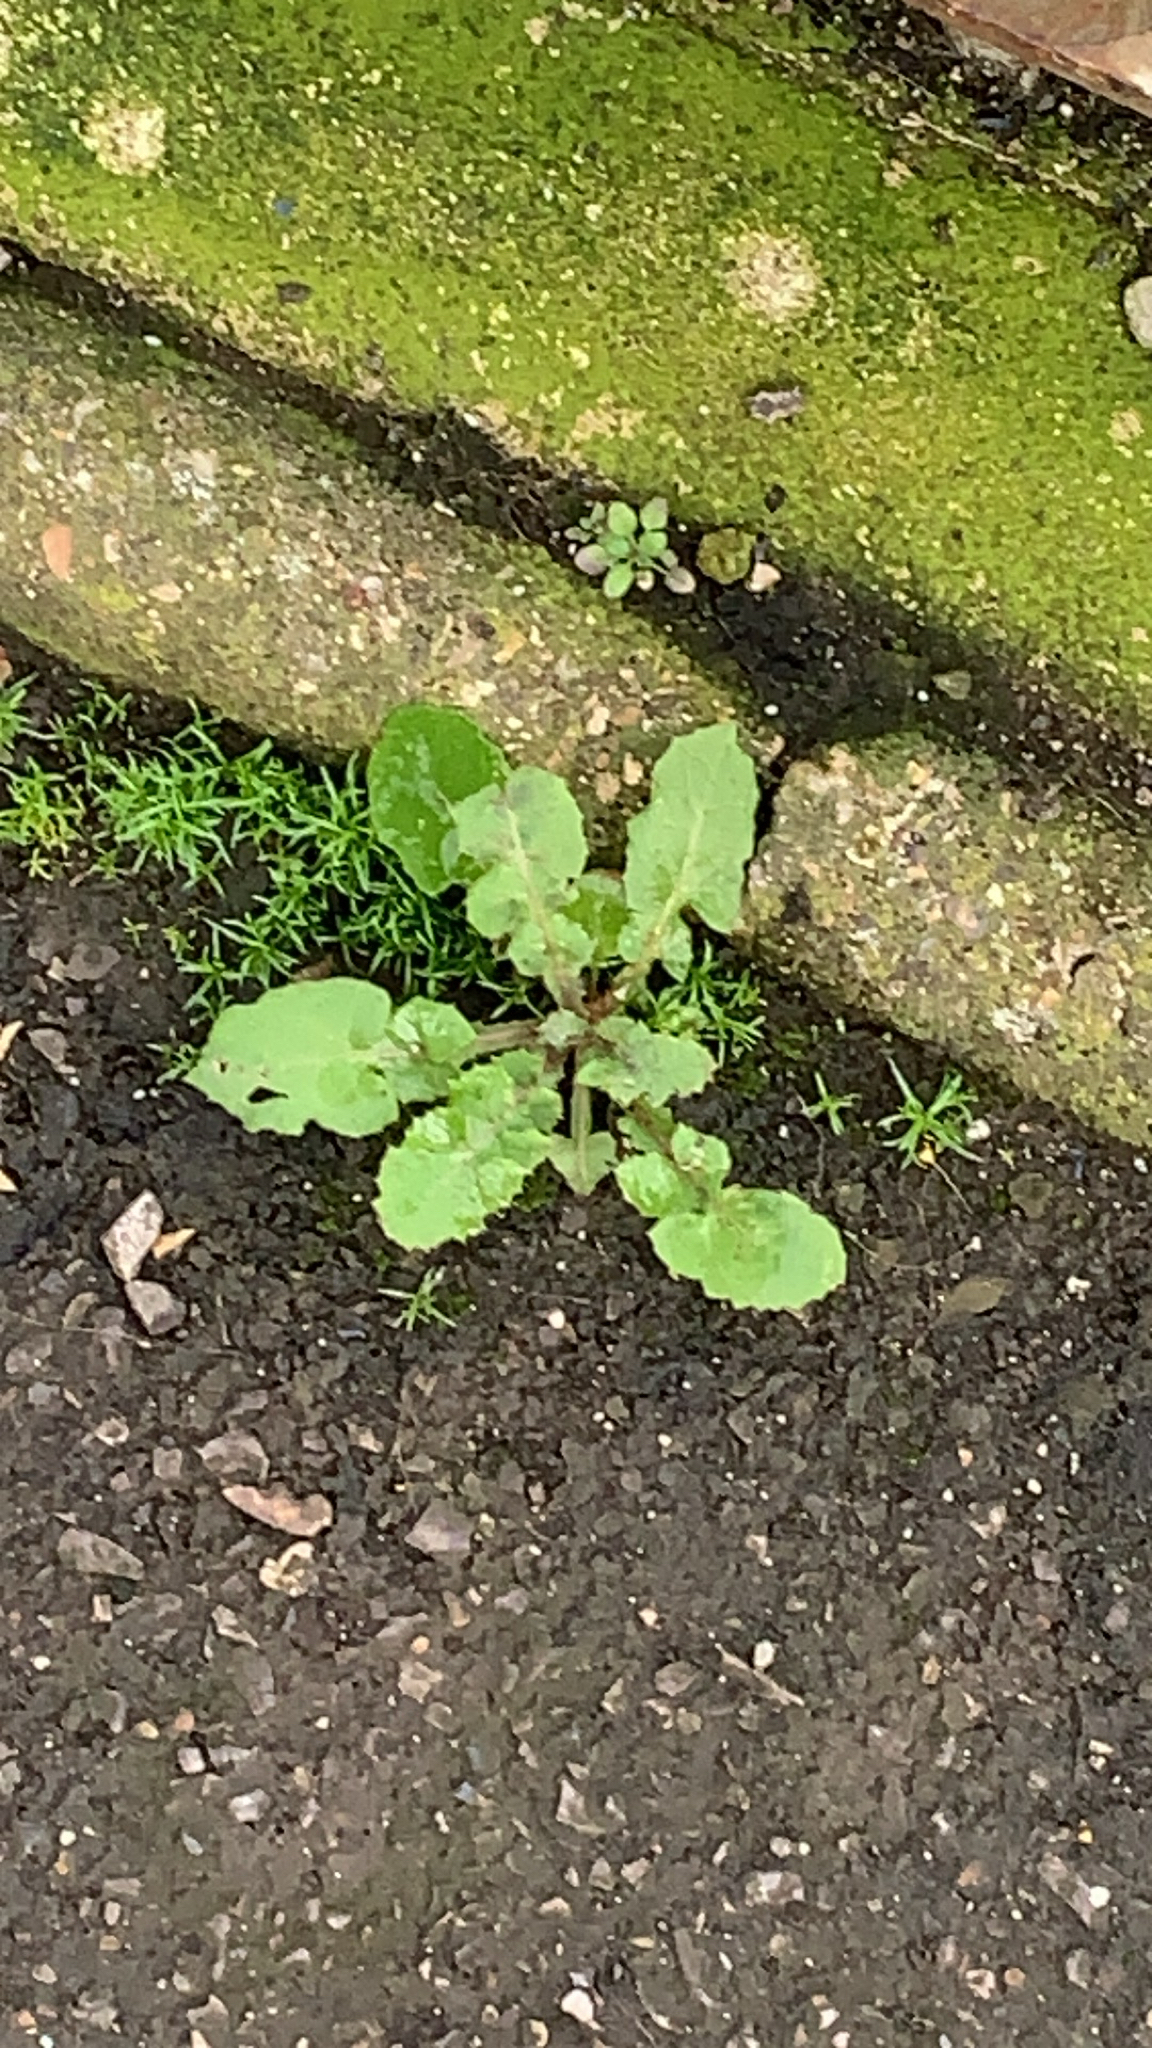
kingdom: Plantae
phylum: Tracheophyta
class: Magnoliopsida
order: Asterales
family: Asteraceae
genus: Sonchus
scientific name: Sonchus oleraceus
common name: Common sowthistle
